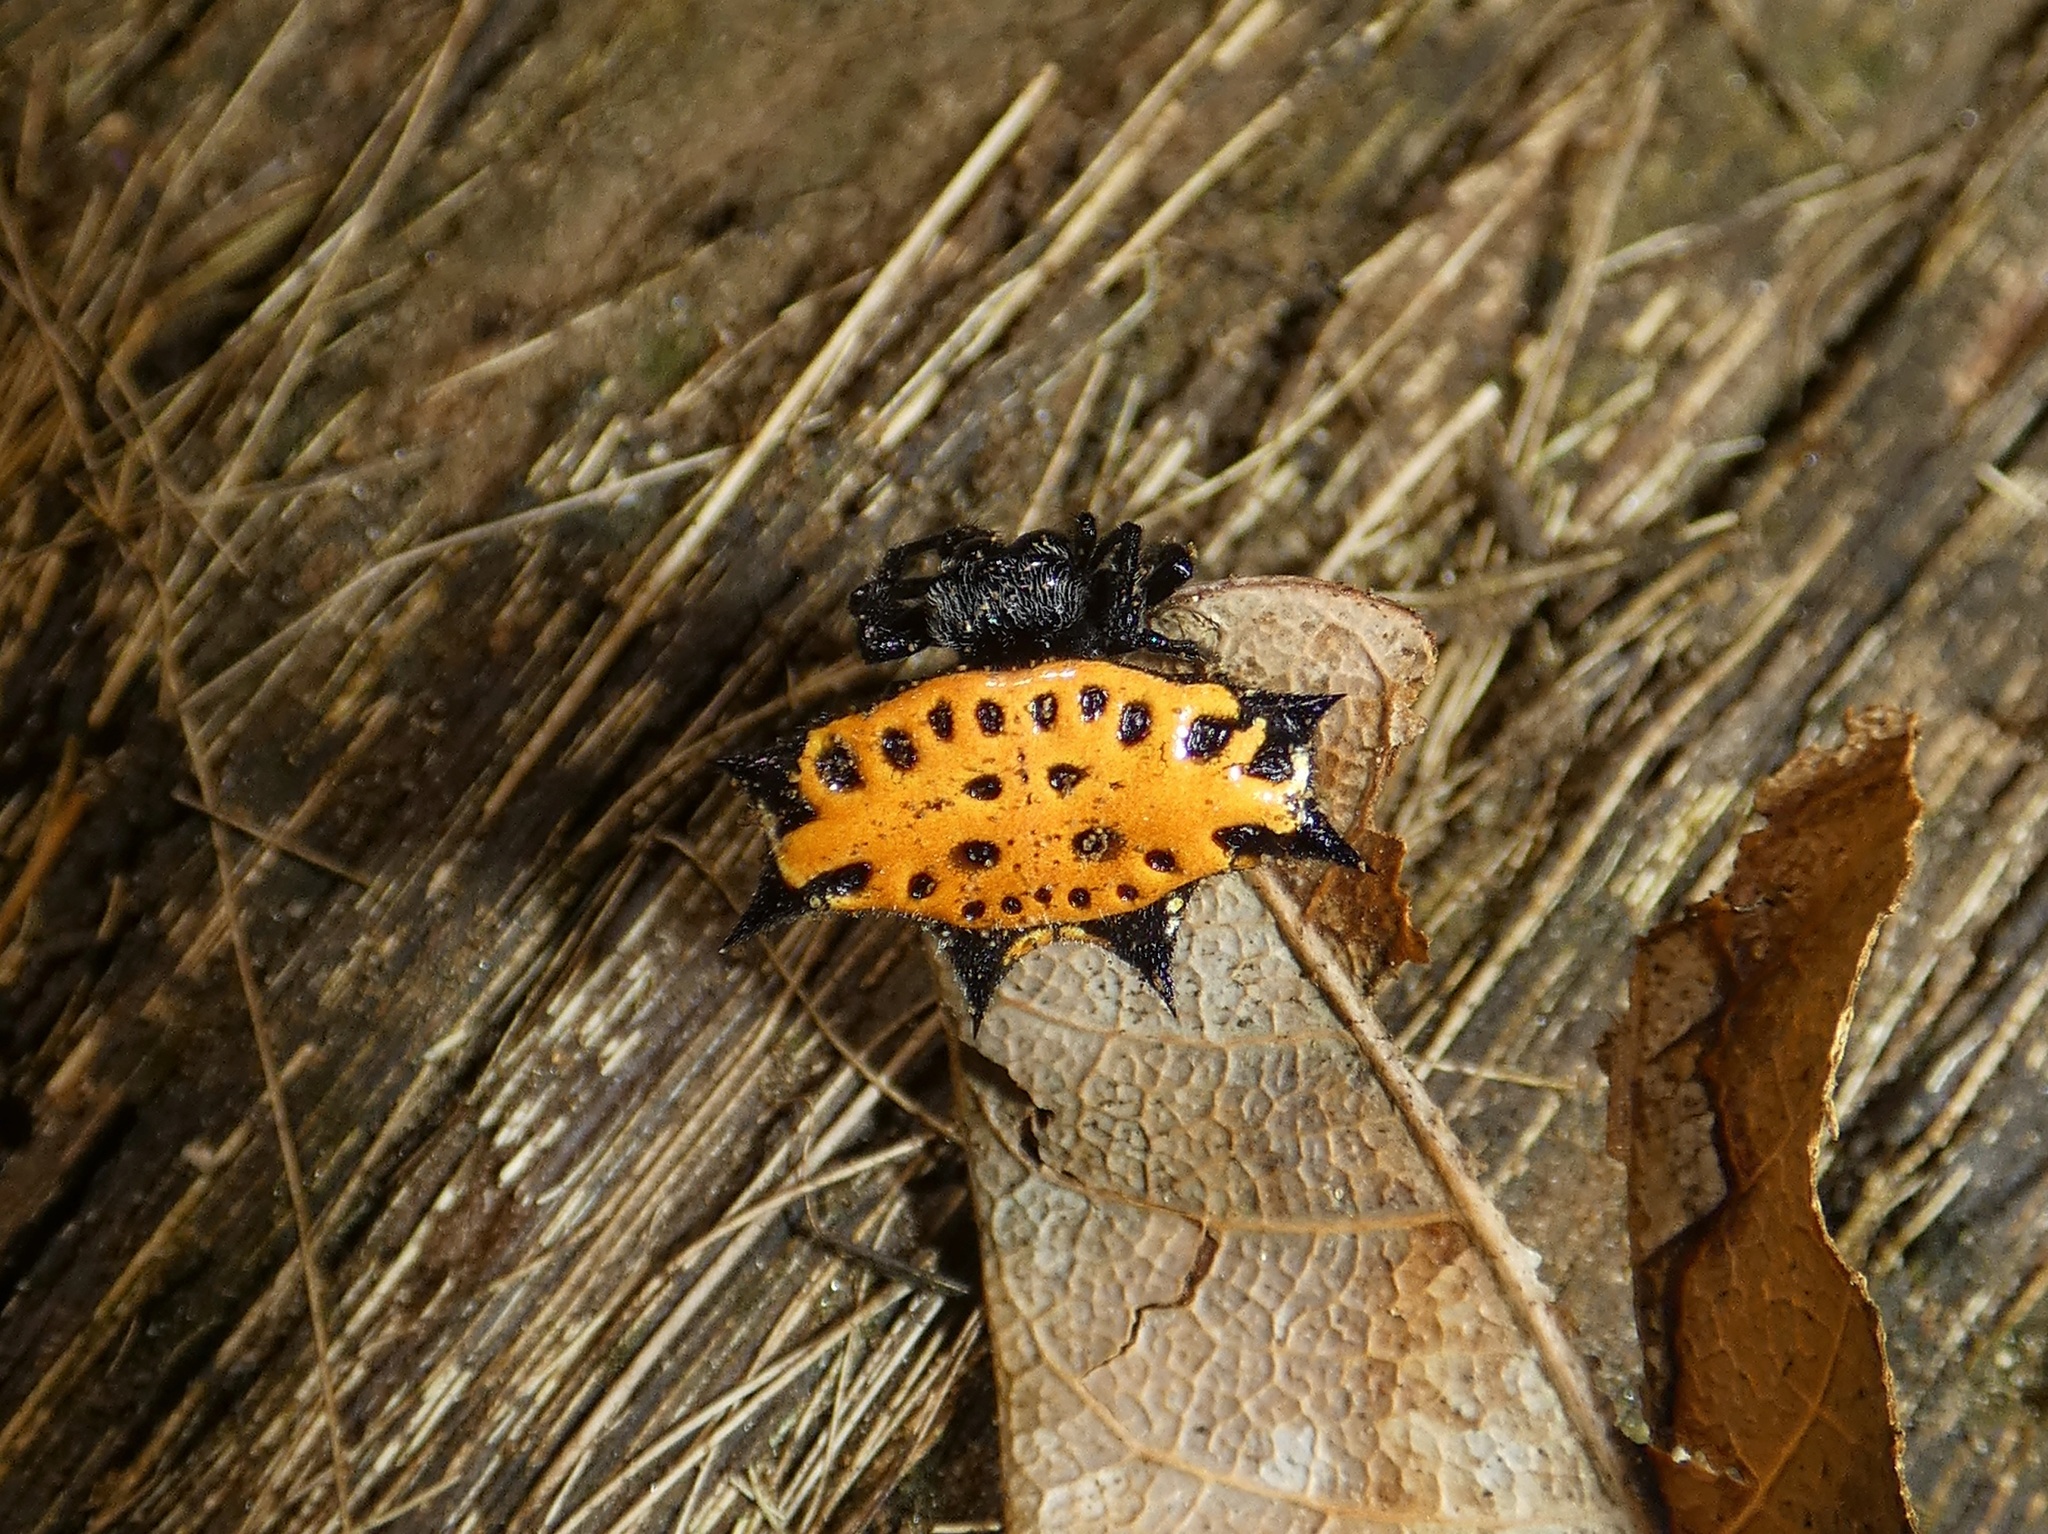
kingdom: Animalia
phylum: Arthropoda
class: Arachnida
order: Araneae
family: Araneidae
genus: Gasteracantha
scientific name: Gasteracantha cancriformis
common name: Orb weavers
